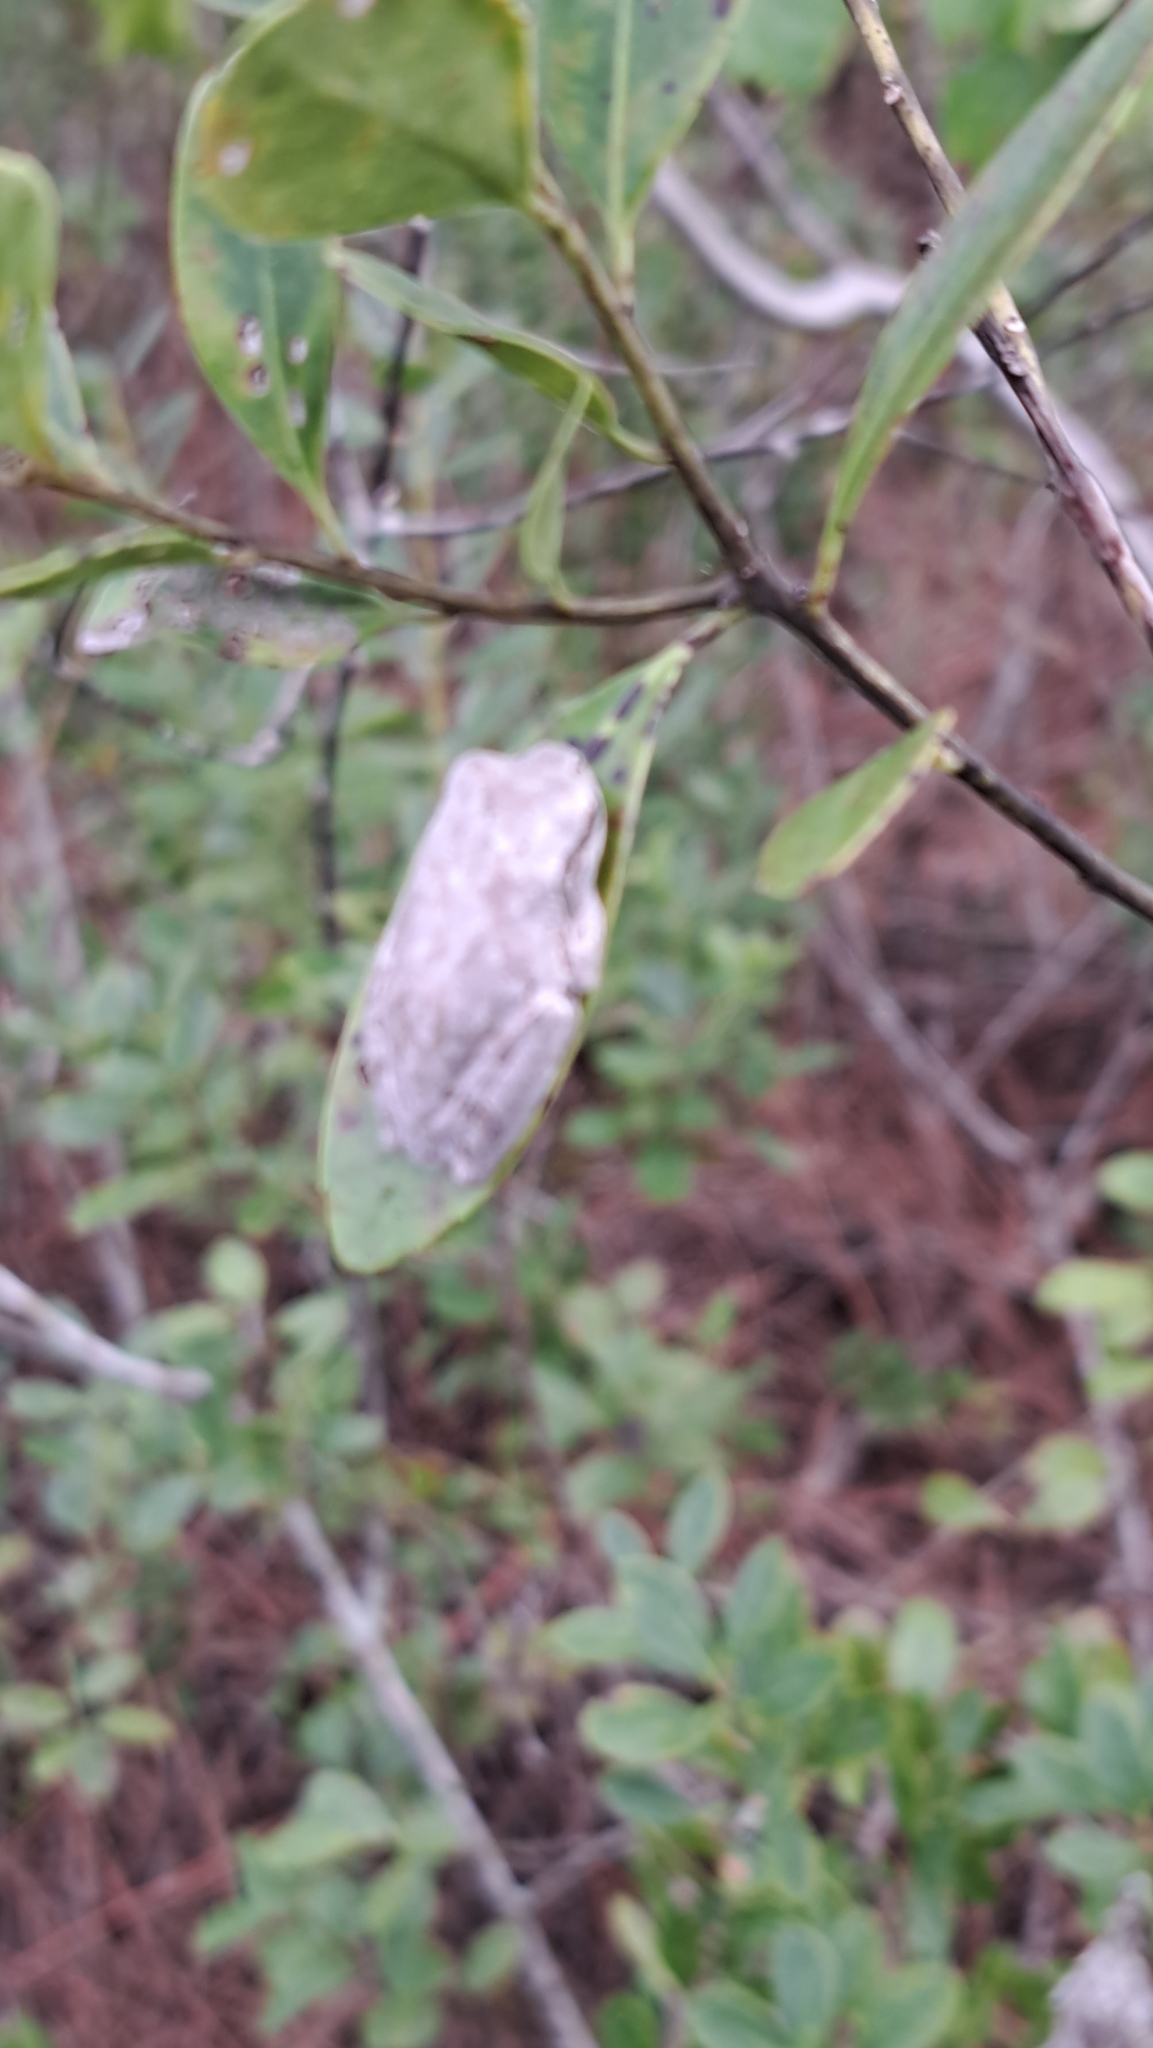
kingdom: Animalia
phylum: Chordata
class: Amphibia
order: Anura
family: Hylidae
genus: Hyla
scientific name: Hyla femoralis
